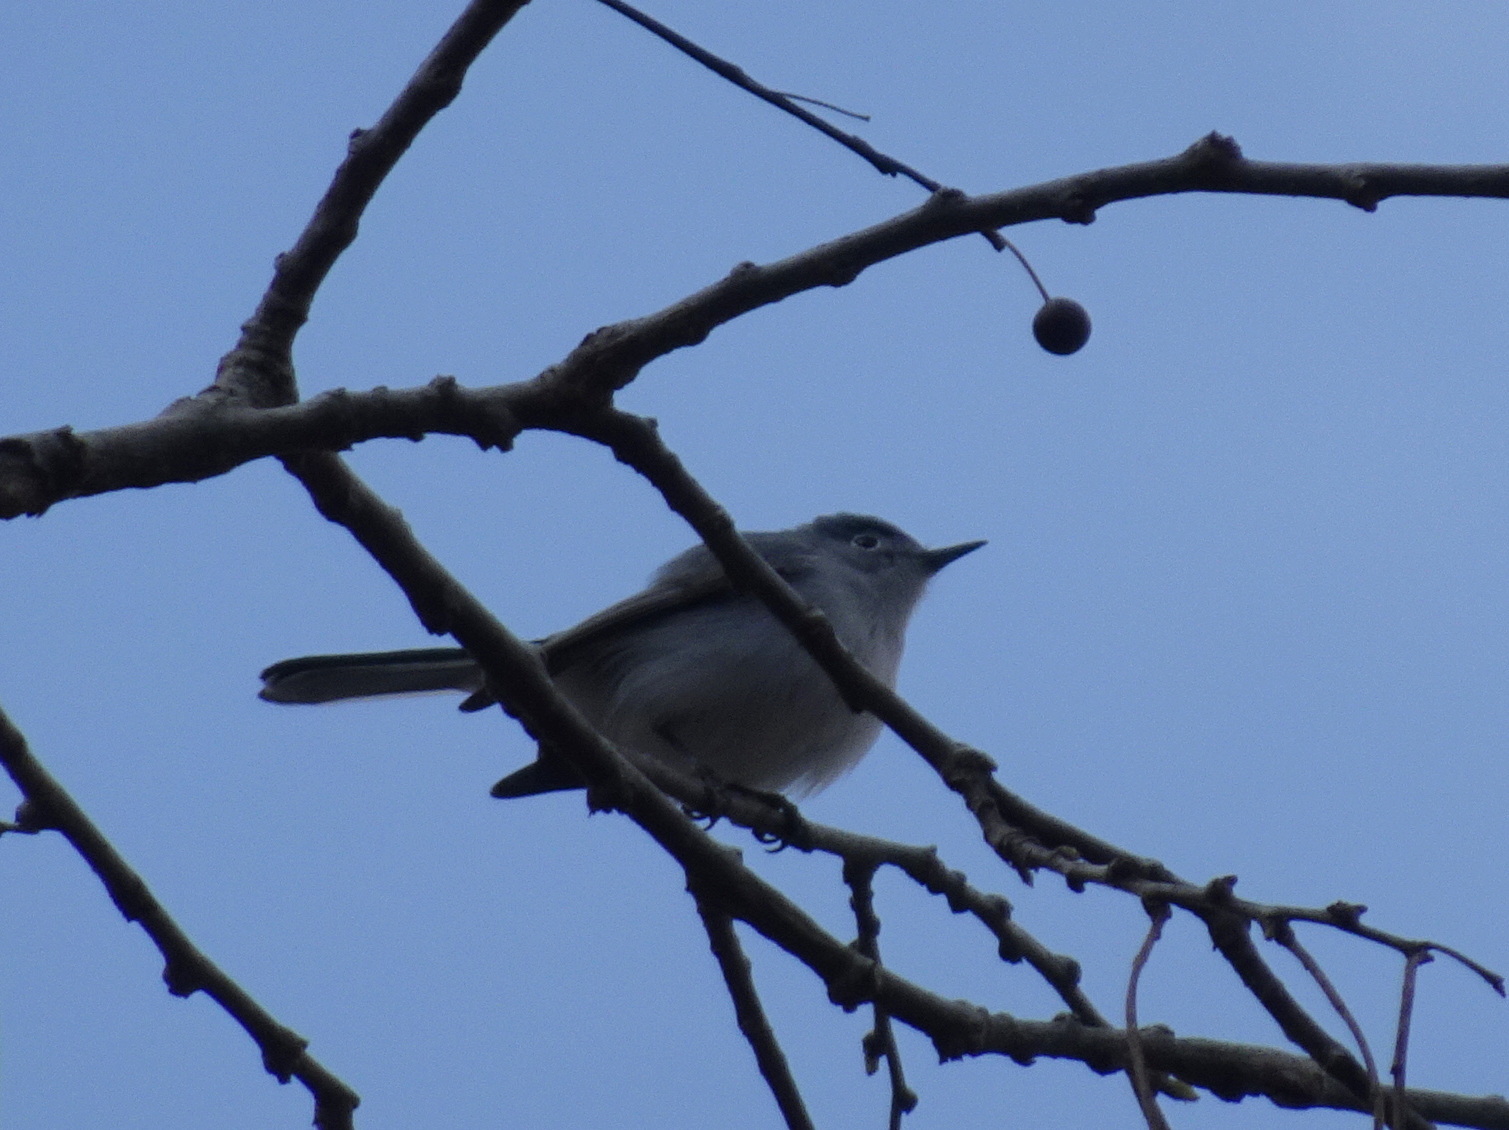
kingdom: Animalia
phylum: Chordata
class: Aves
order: Passeriformes
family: Polioptilidae
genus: Polioptila
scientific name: Polioptila caerulea
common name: Blue-gray gnatcatcher
